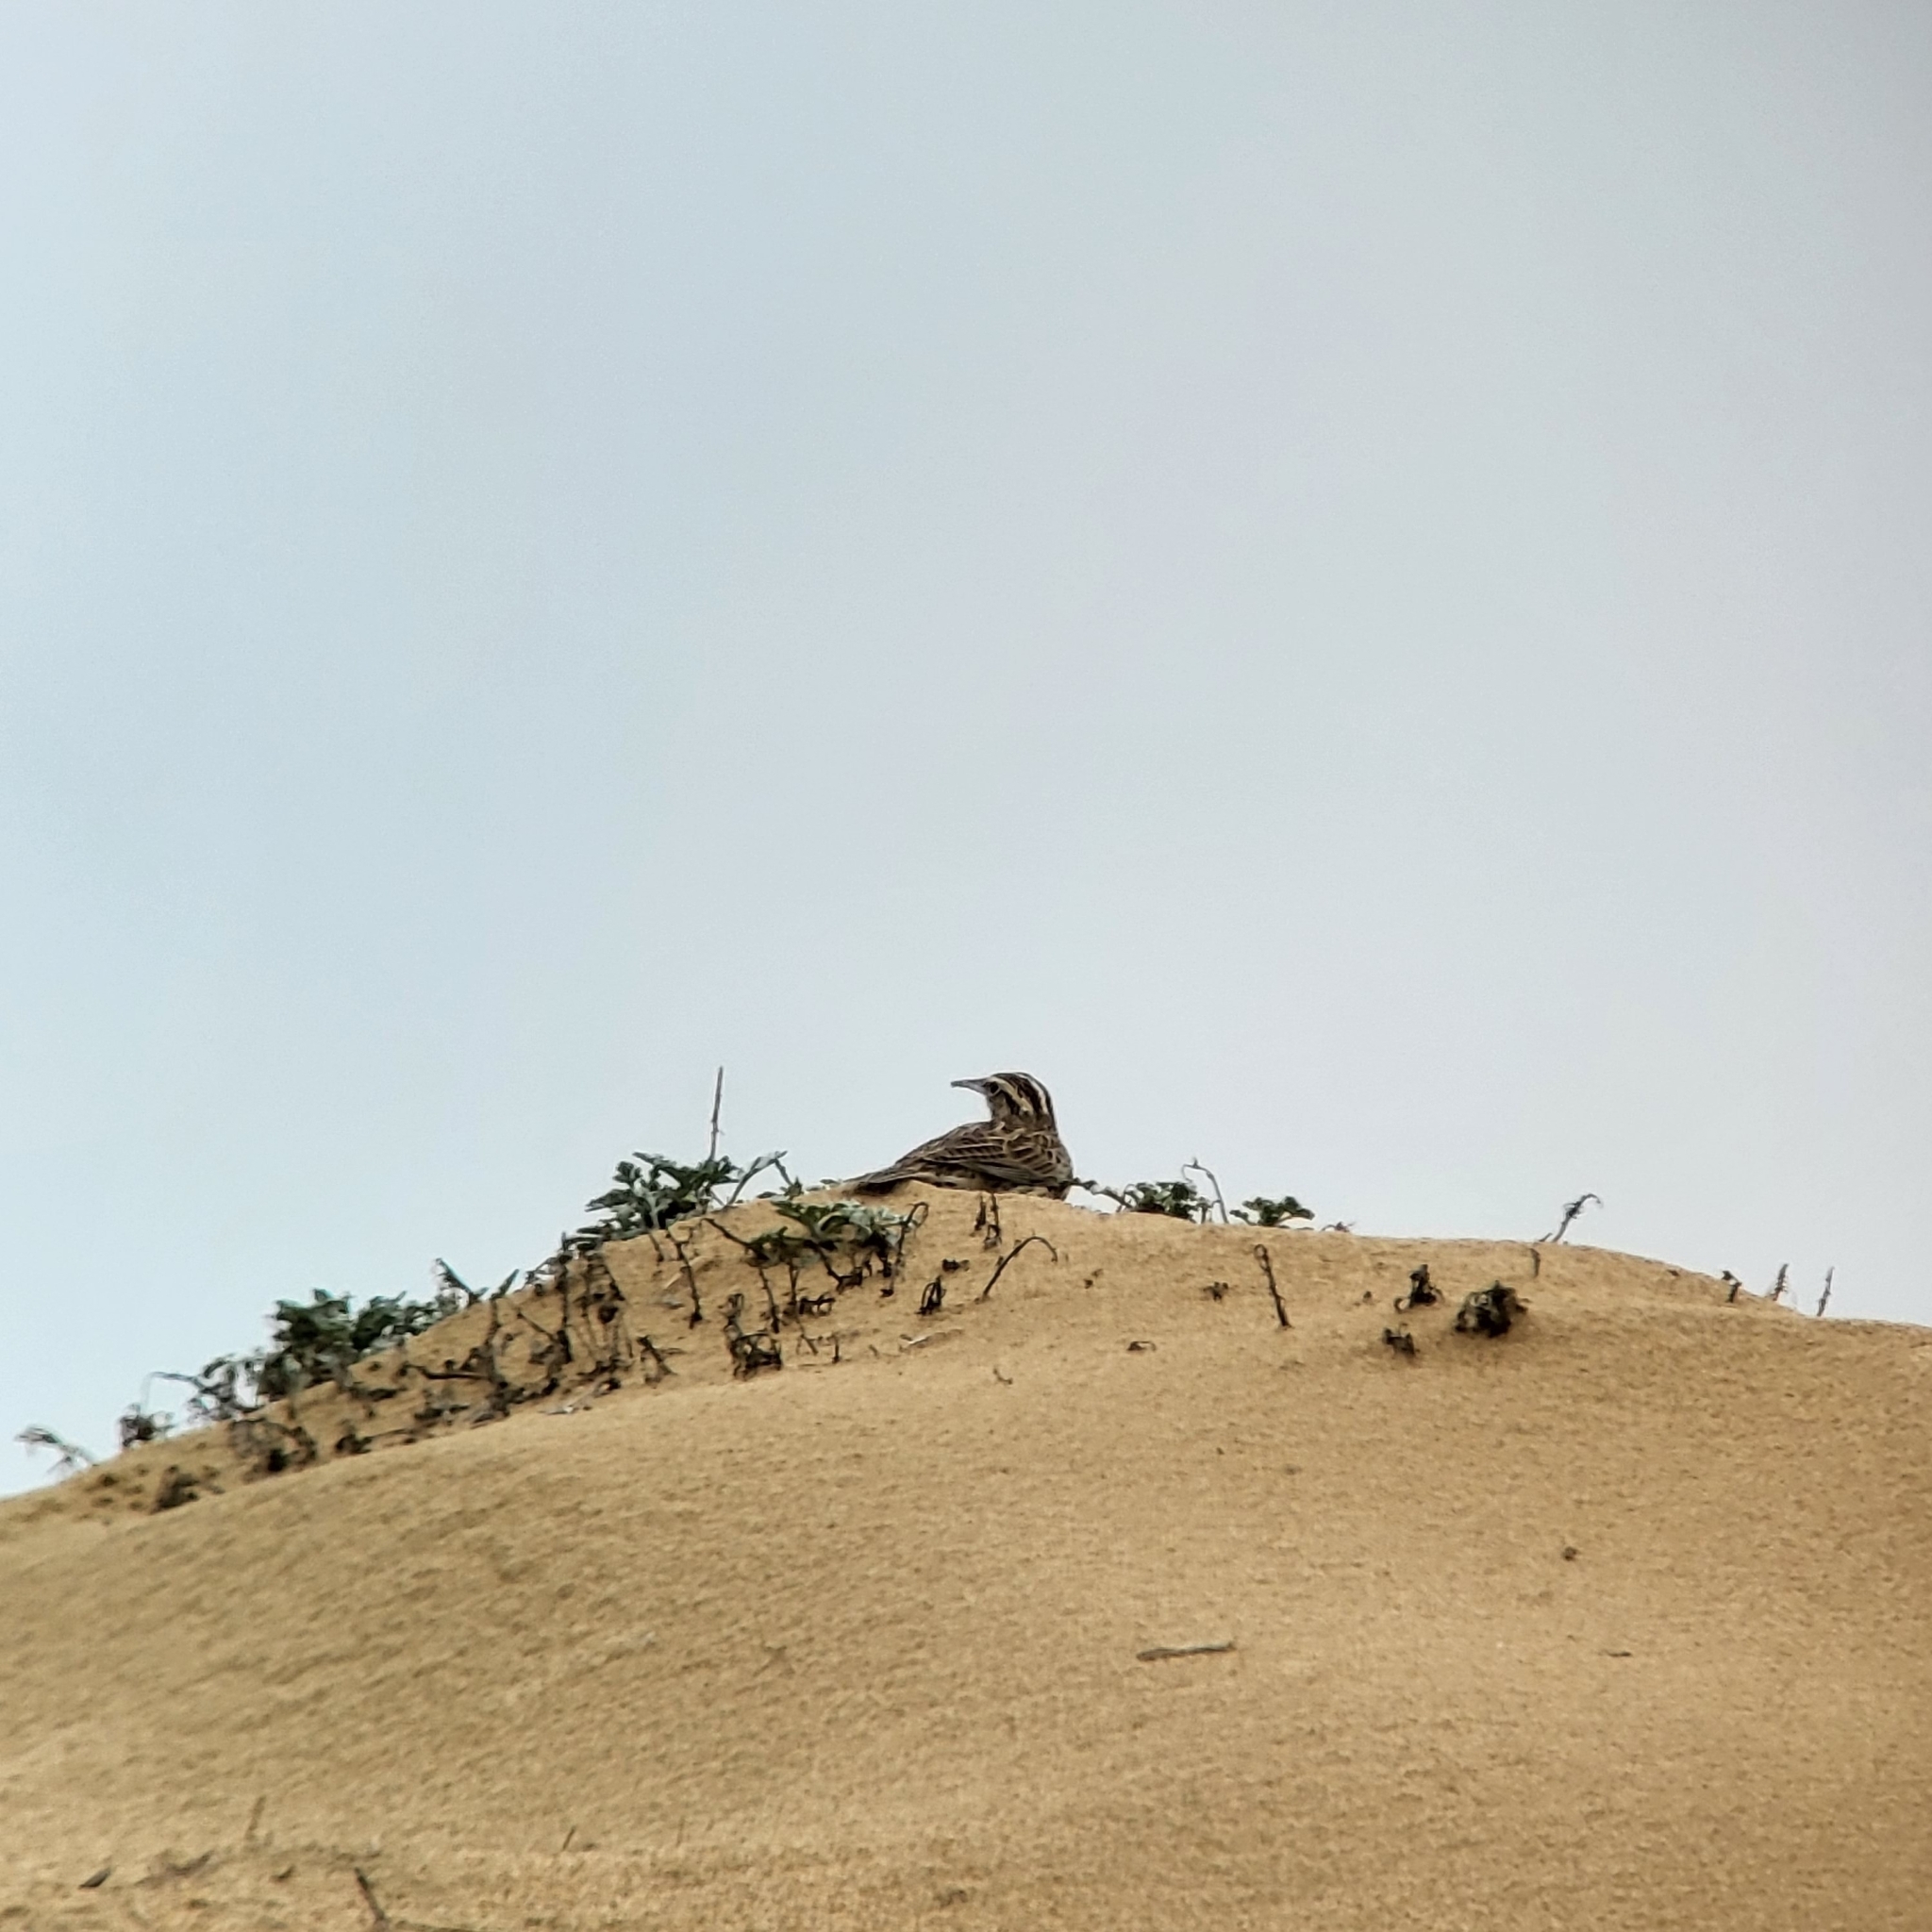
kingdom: Animalia
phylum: Chordata
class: Aves
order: Passeriformes
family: Icteridae
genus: Sturnella
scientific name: Sturnella neglecta
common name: Western meadowlark
